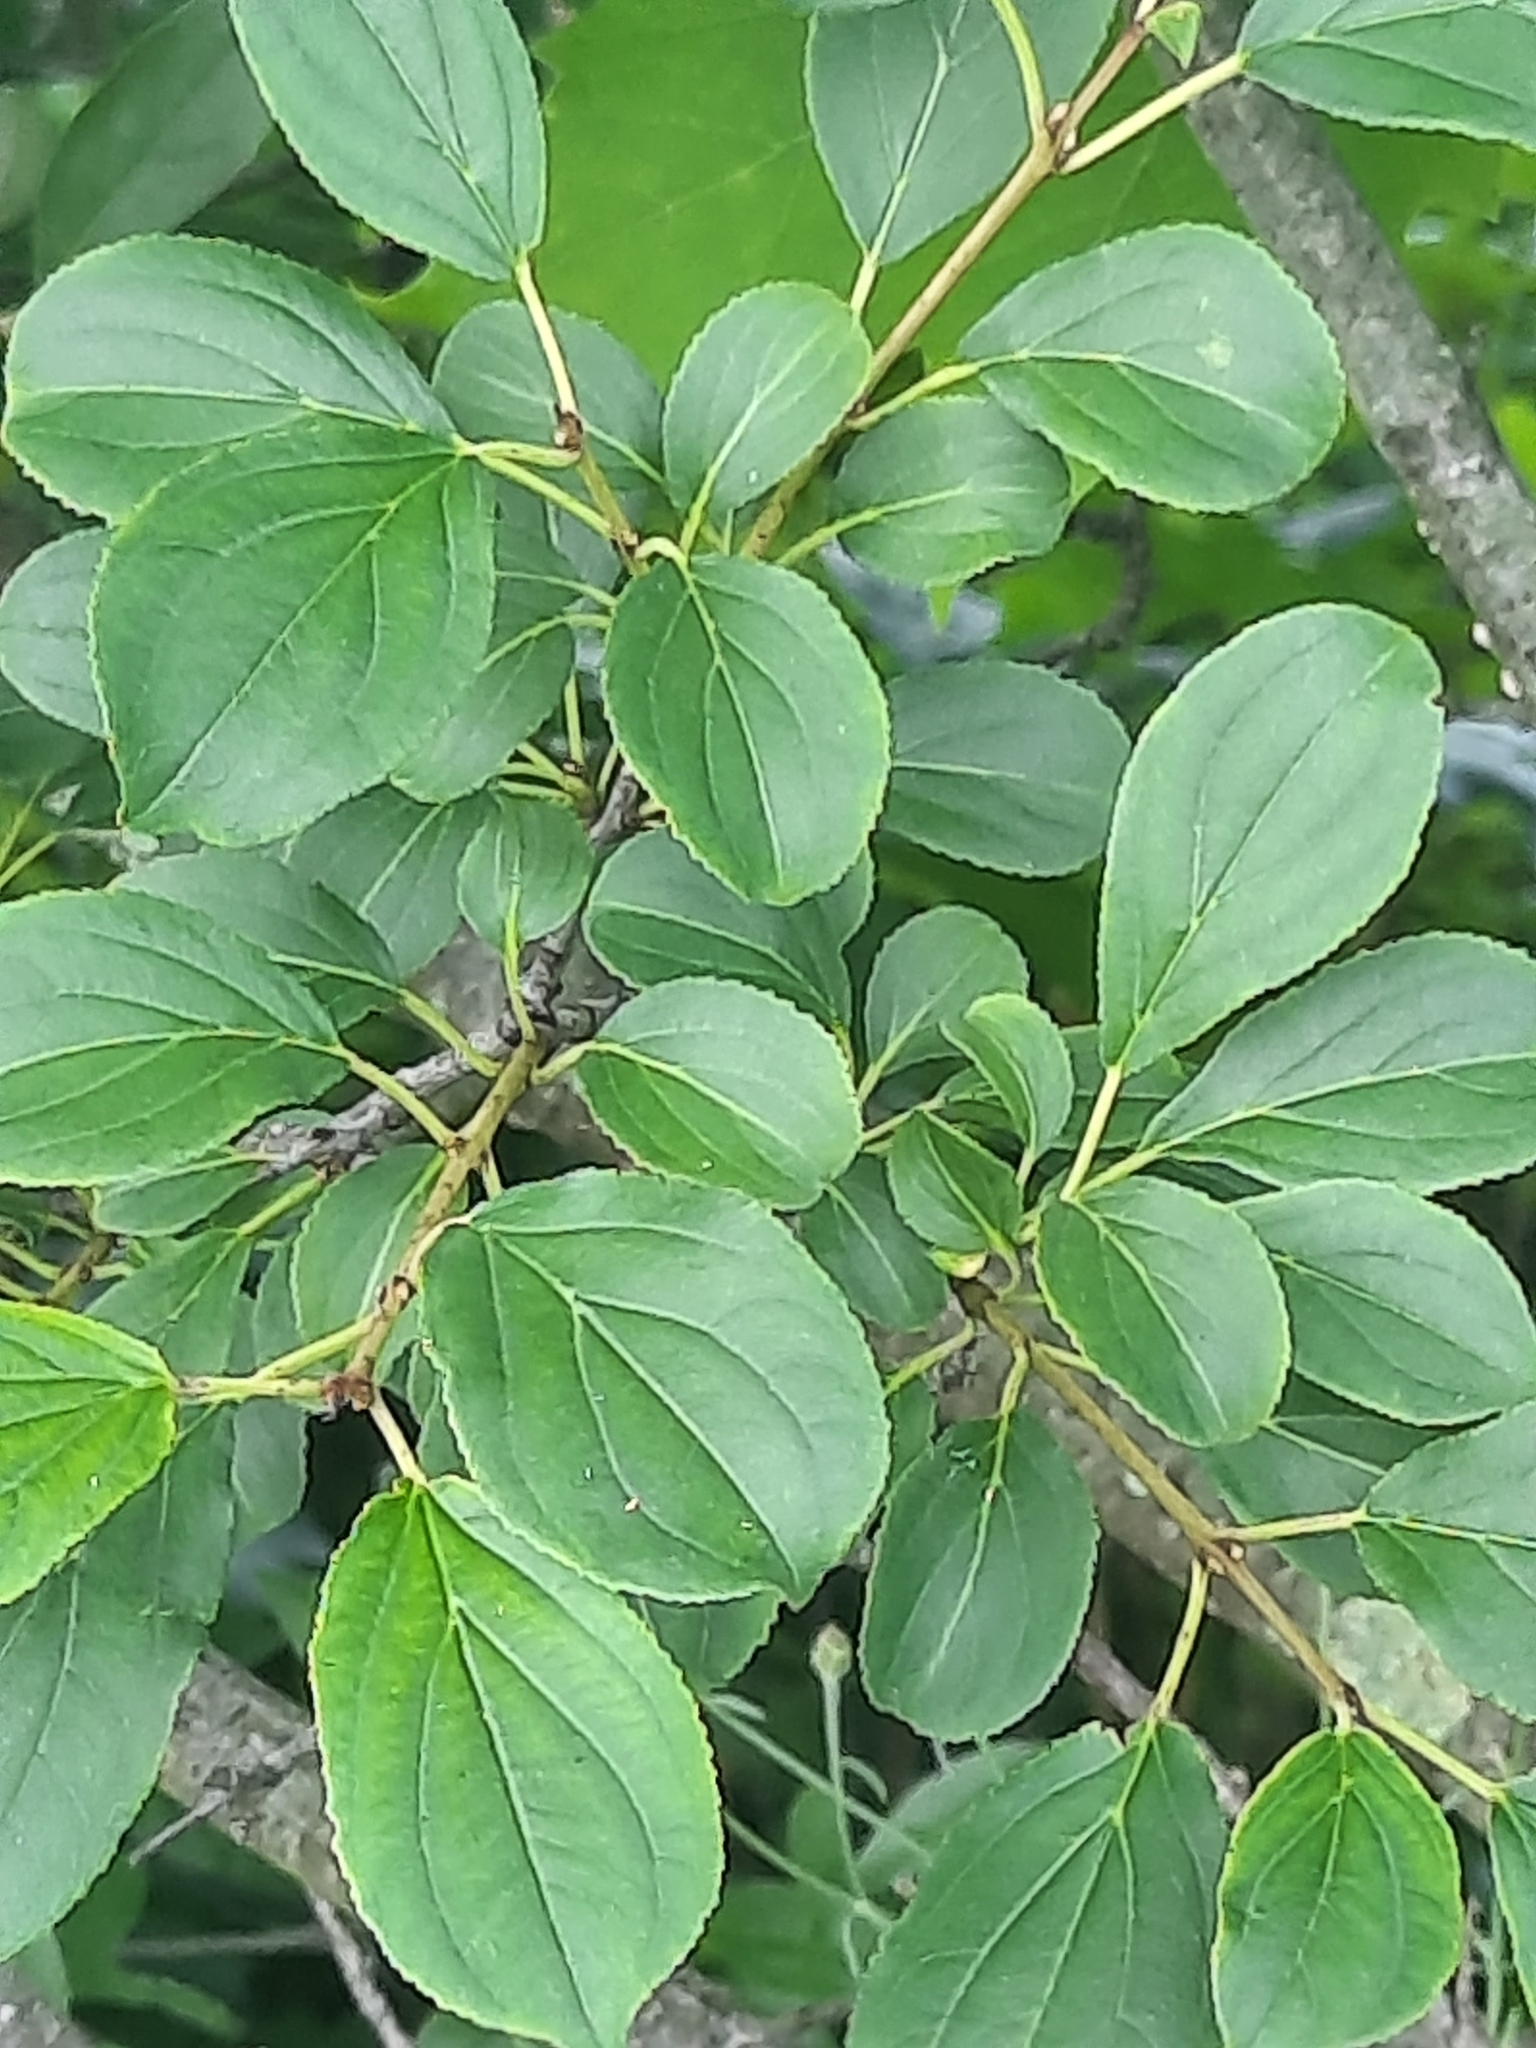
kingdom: Plantae
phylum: Tracheophyta
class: Magnoliopsida
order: Rosales
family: Rhamnaceae
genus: Rhamnus
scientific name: Rhamnus cathartica
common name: Common buckthorn
